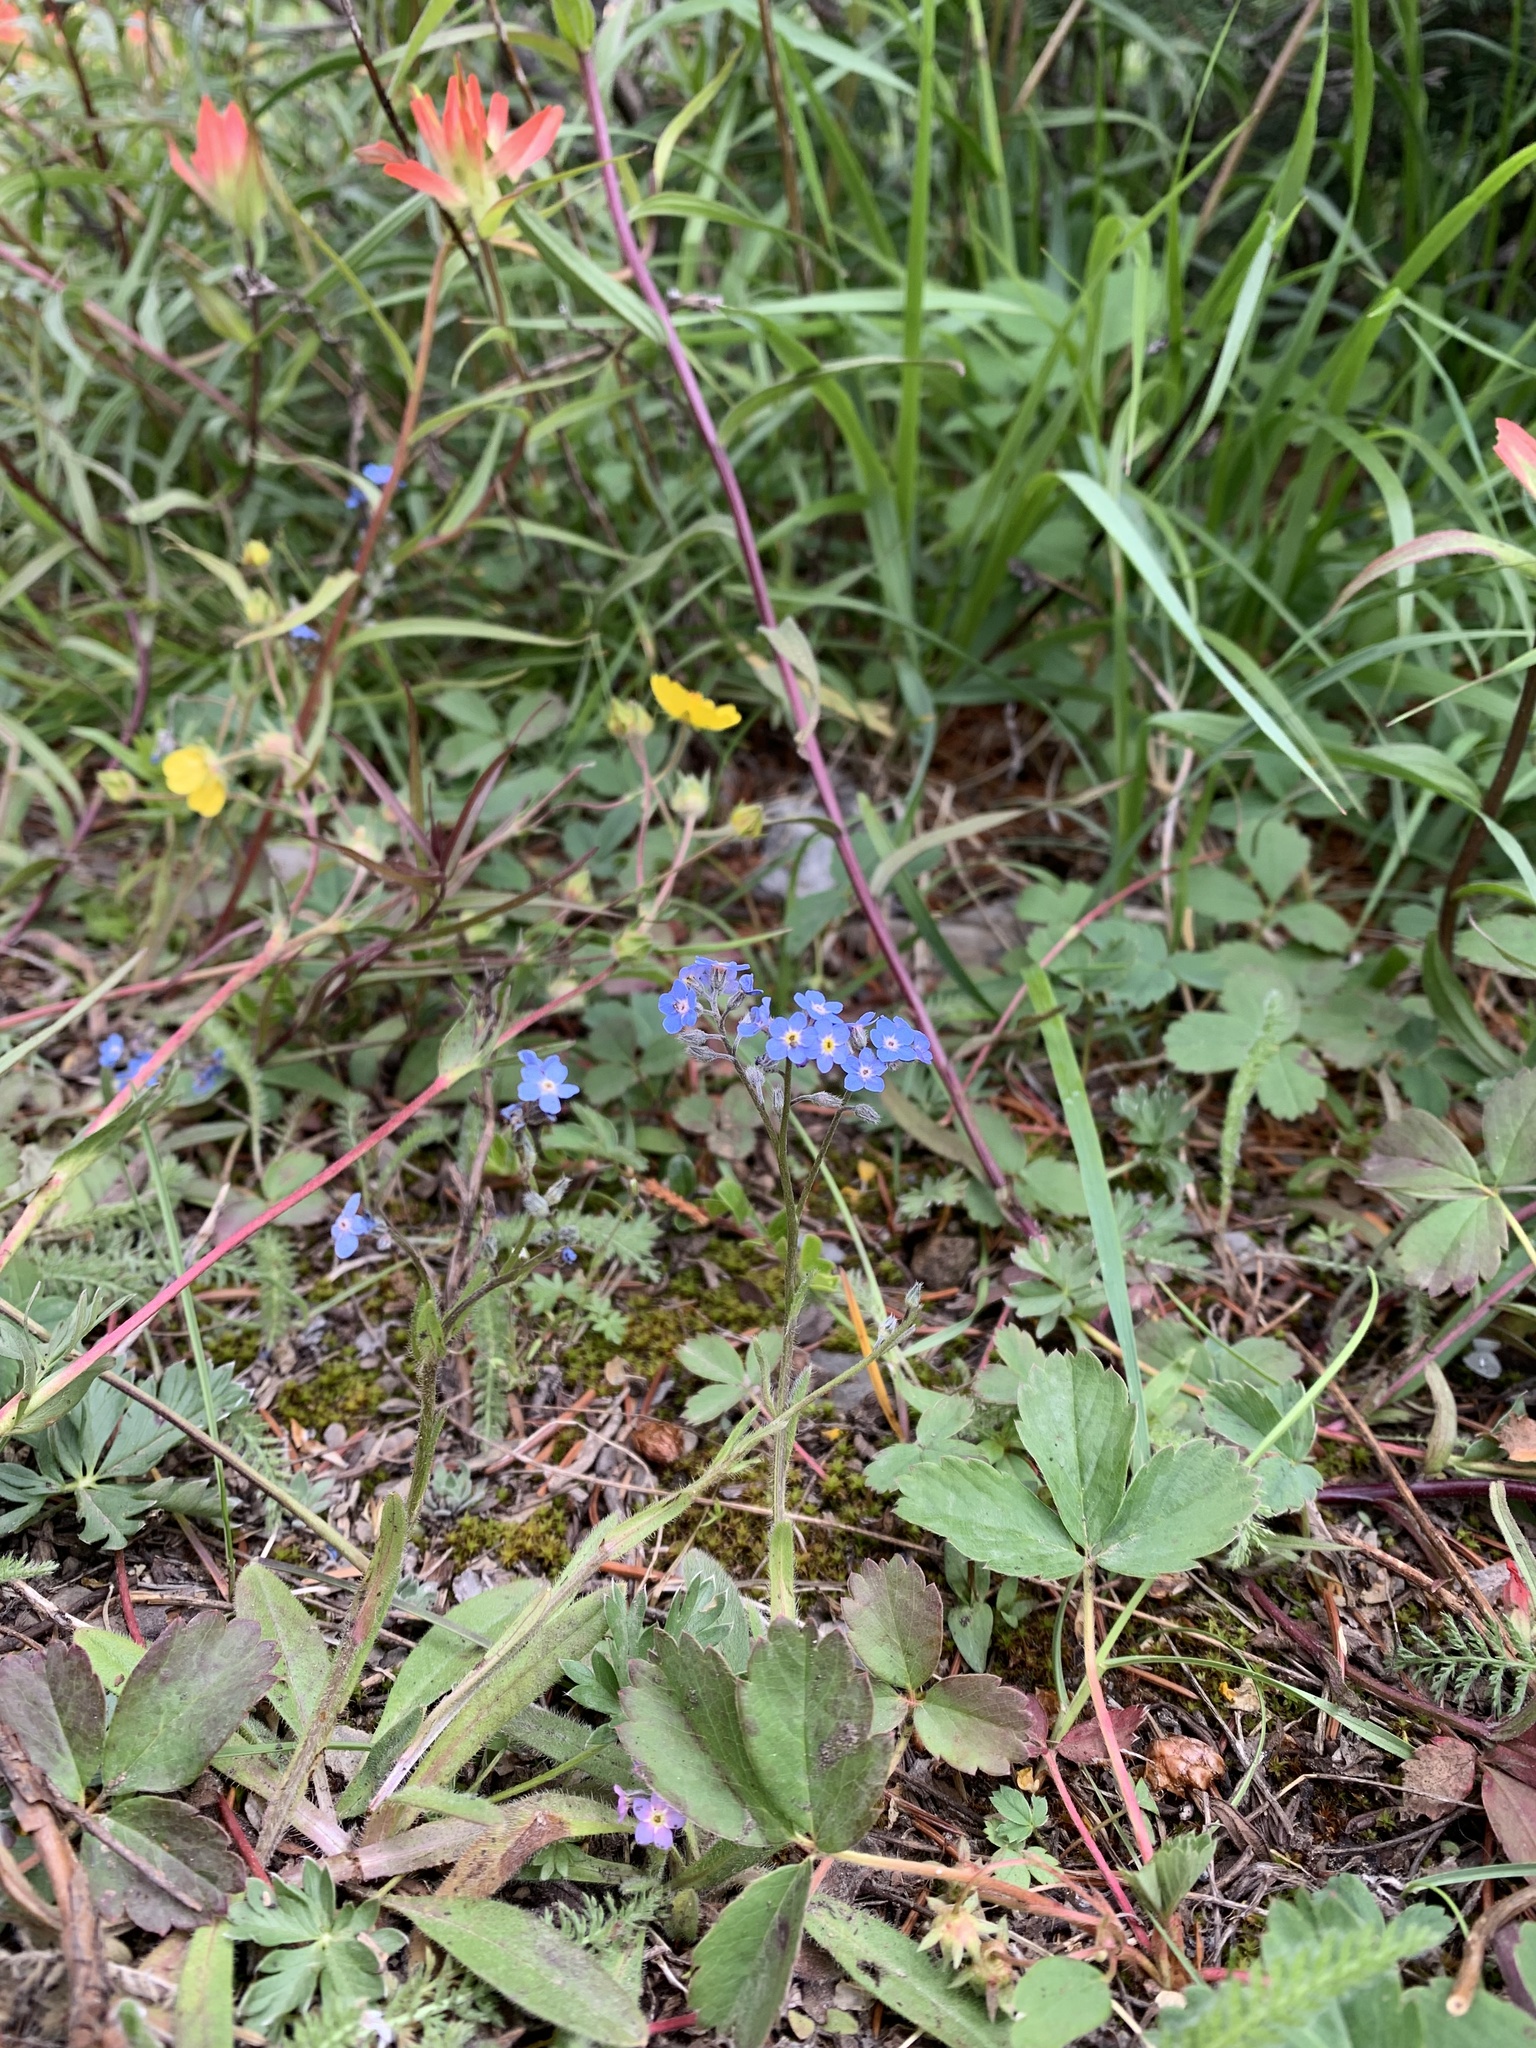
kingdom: Plantae
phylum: Tracheophyta
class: Magnoliopsida
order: Boraginales
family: Boraginaceae
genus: Myosotis
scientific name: Myosotis asiatica
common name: Asian forget-me-not
